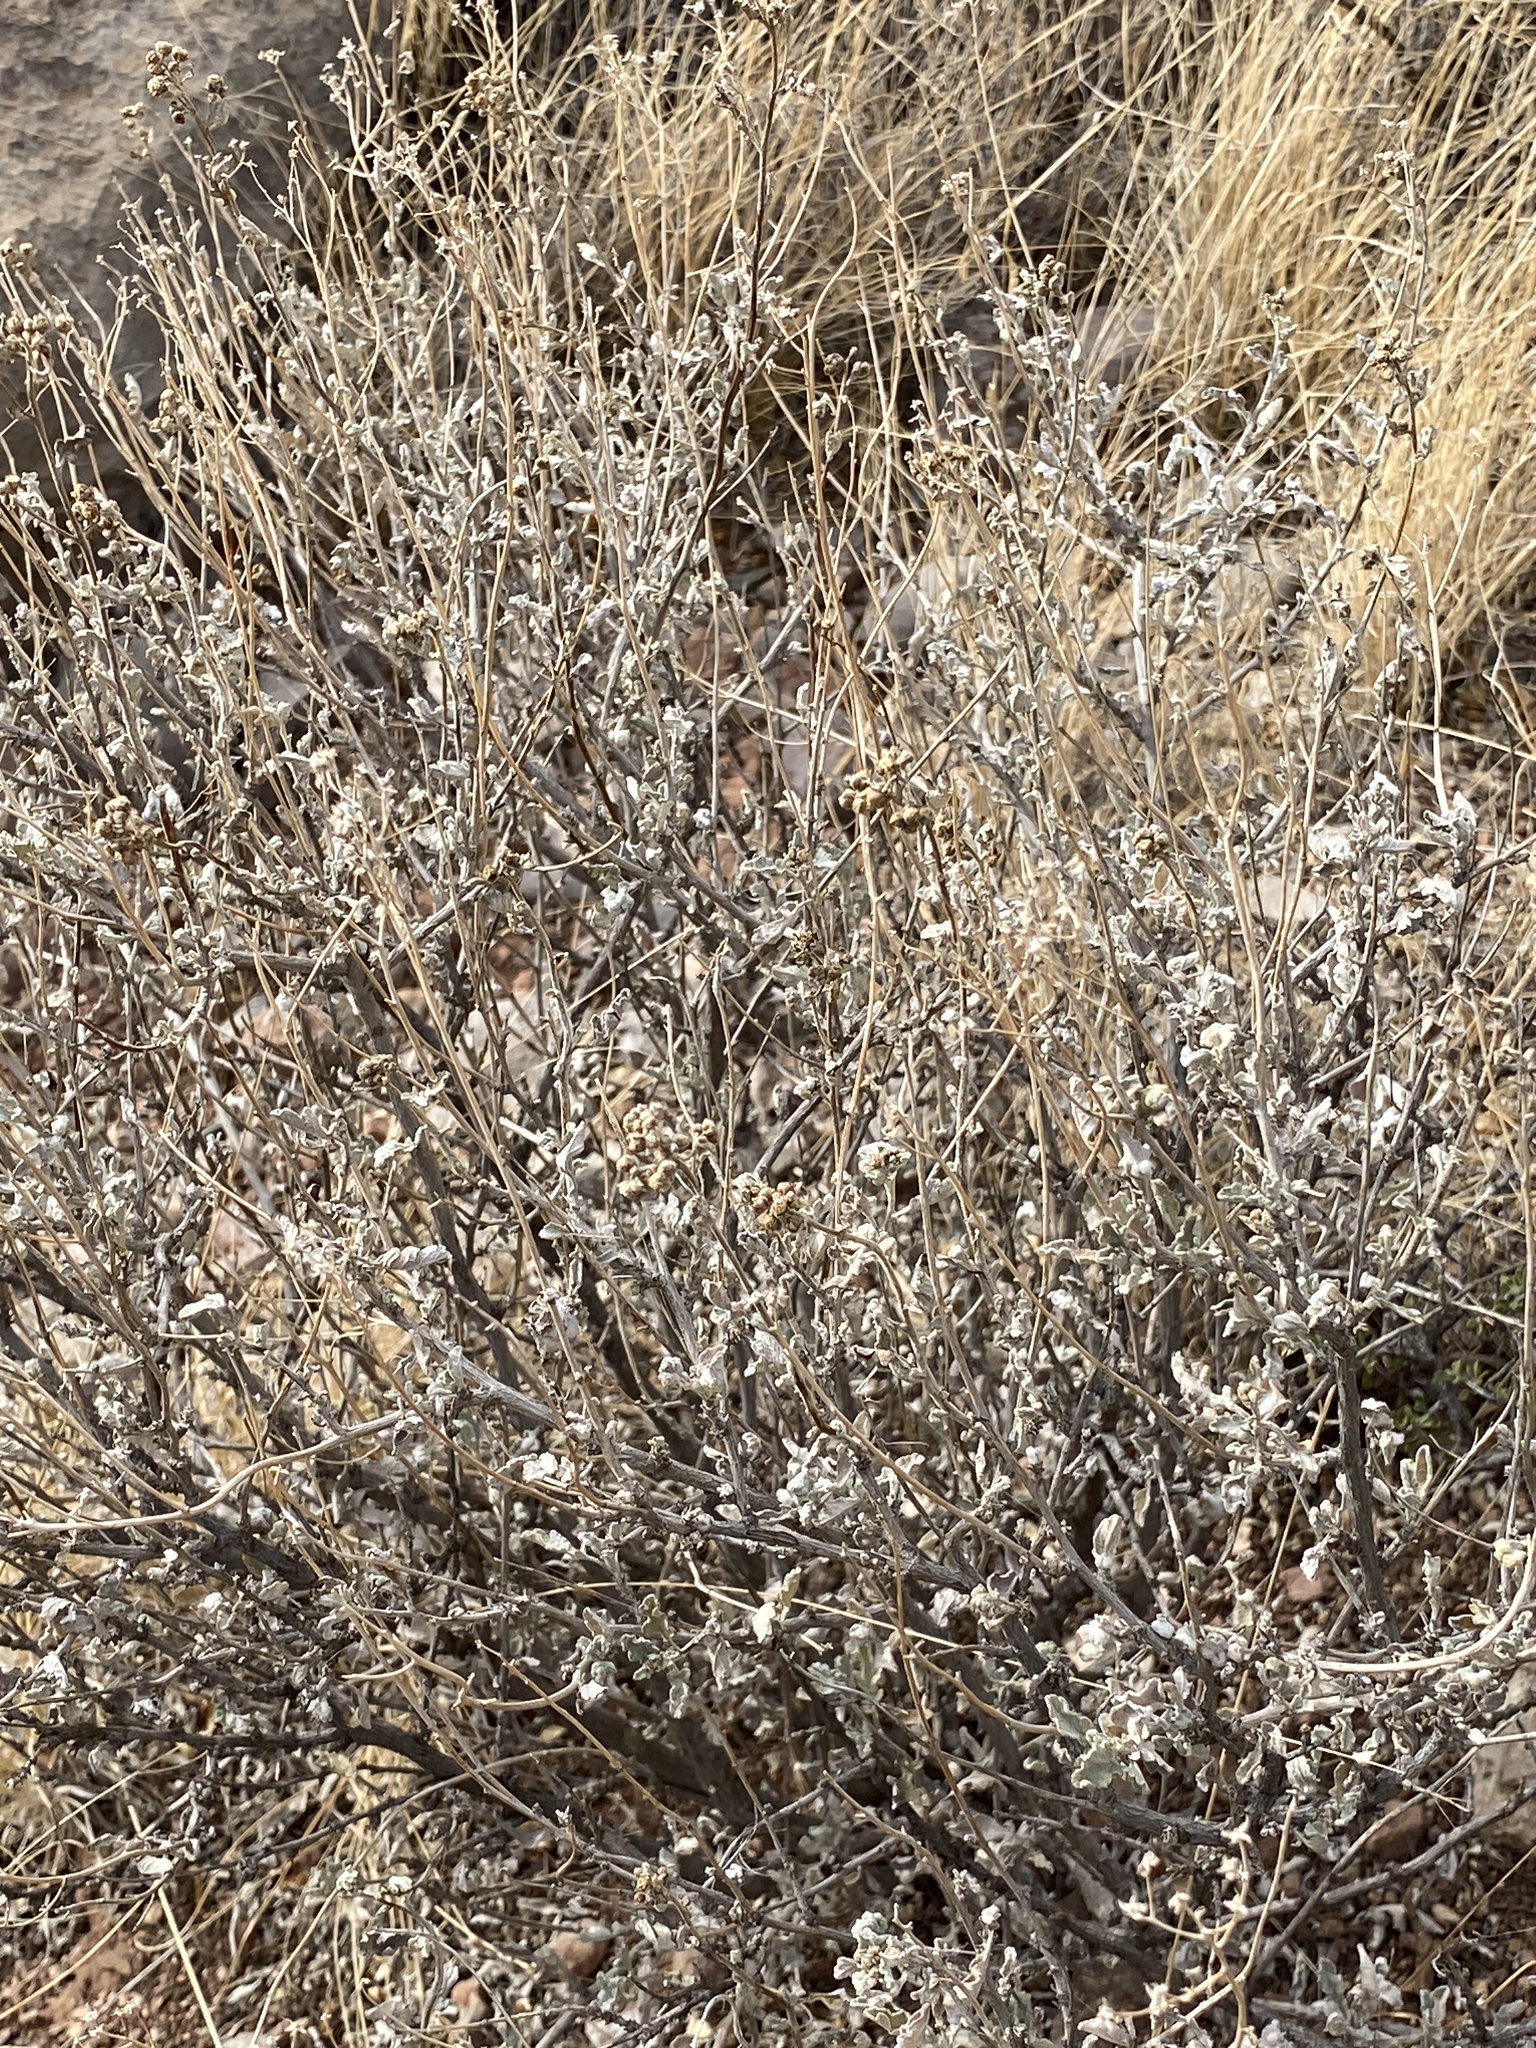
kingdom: Plantae
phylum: Tracheophyta
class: Magnoliopsida
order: Asterales
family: Asteraceae
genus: Parthenium
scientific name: Parthenium incanum
